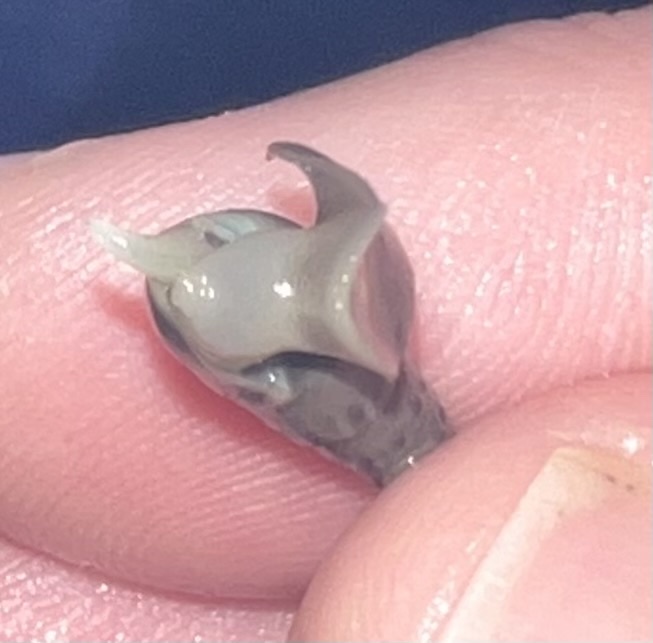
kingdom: Animalia
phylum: Mollusca
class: Gastropoda
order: Neogastropoda
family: Terebridae
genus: Hastula
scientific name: Hastula cinerea
